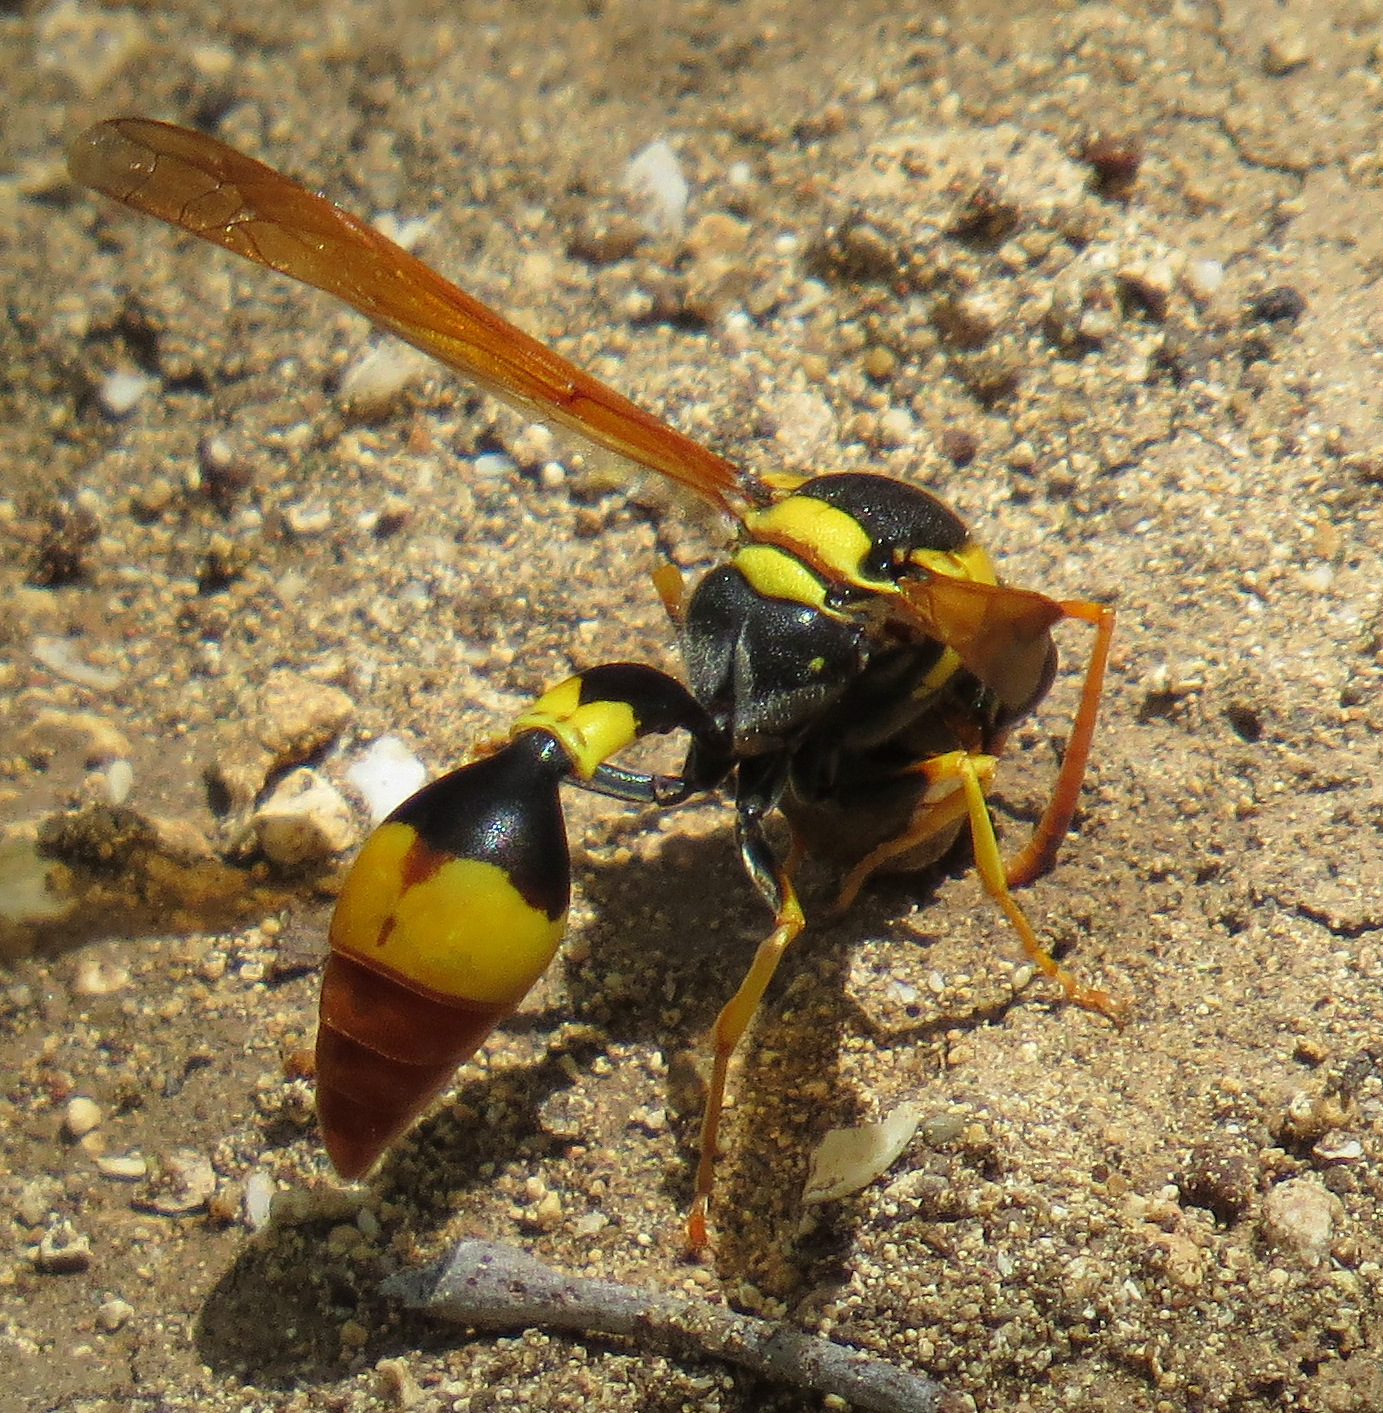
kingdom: Animalia
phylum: Arthropoda
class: Insecta
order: Hymenoptera
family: Eumenidae
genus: Zeta
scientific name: Zeta abdominale
